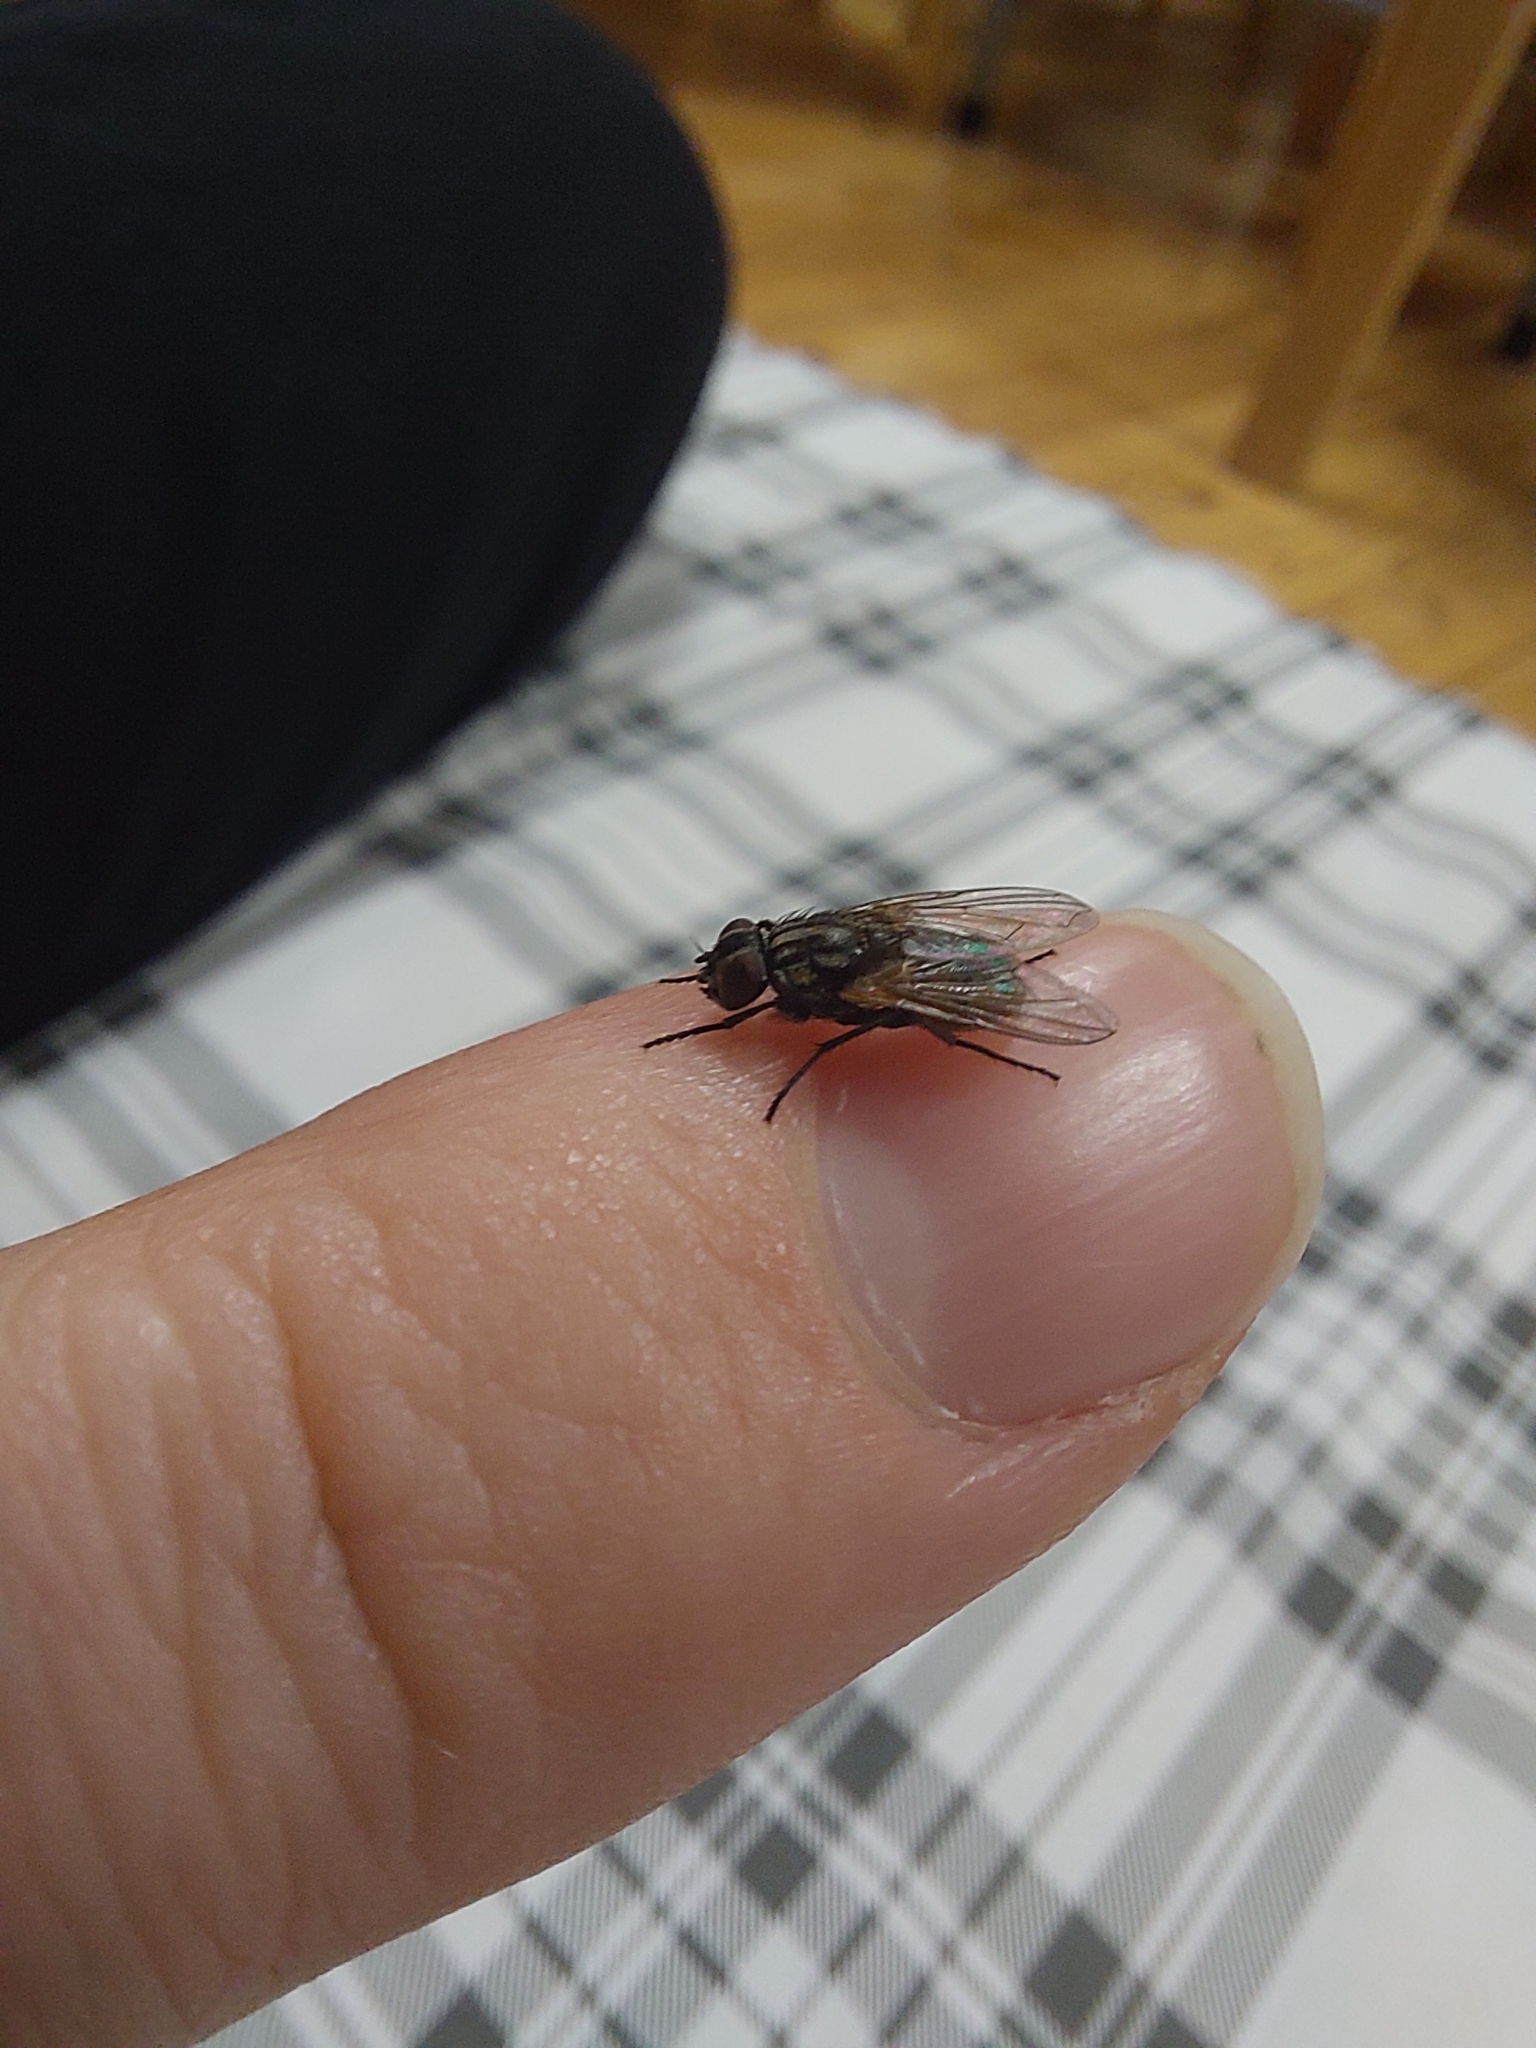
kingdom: Animalia
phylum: Arthropoda
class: Insecta
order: Diptera
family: Muscidae
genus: Musca
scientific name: Musca domestica
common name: House fly
